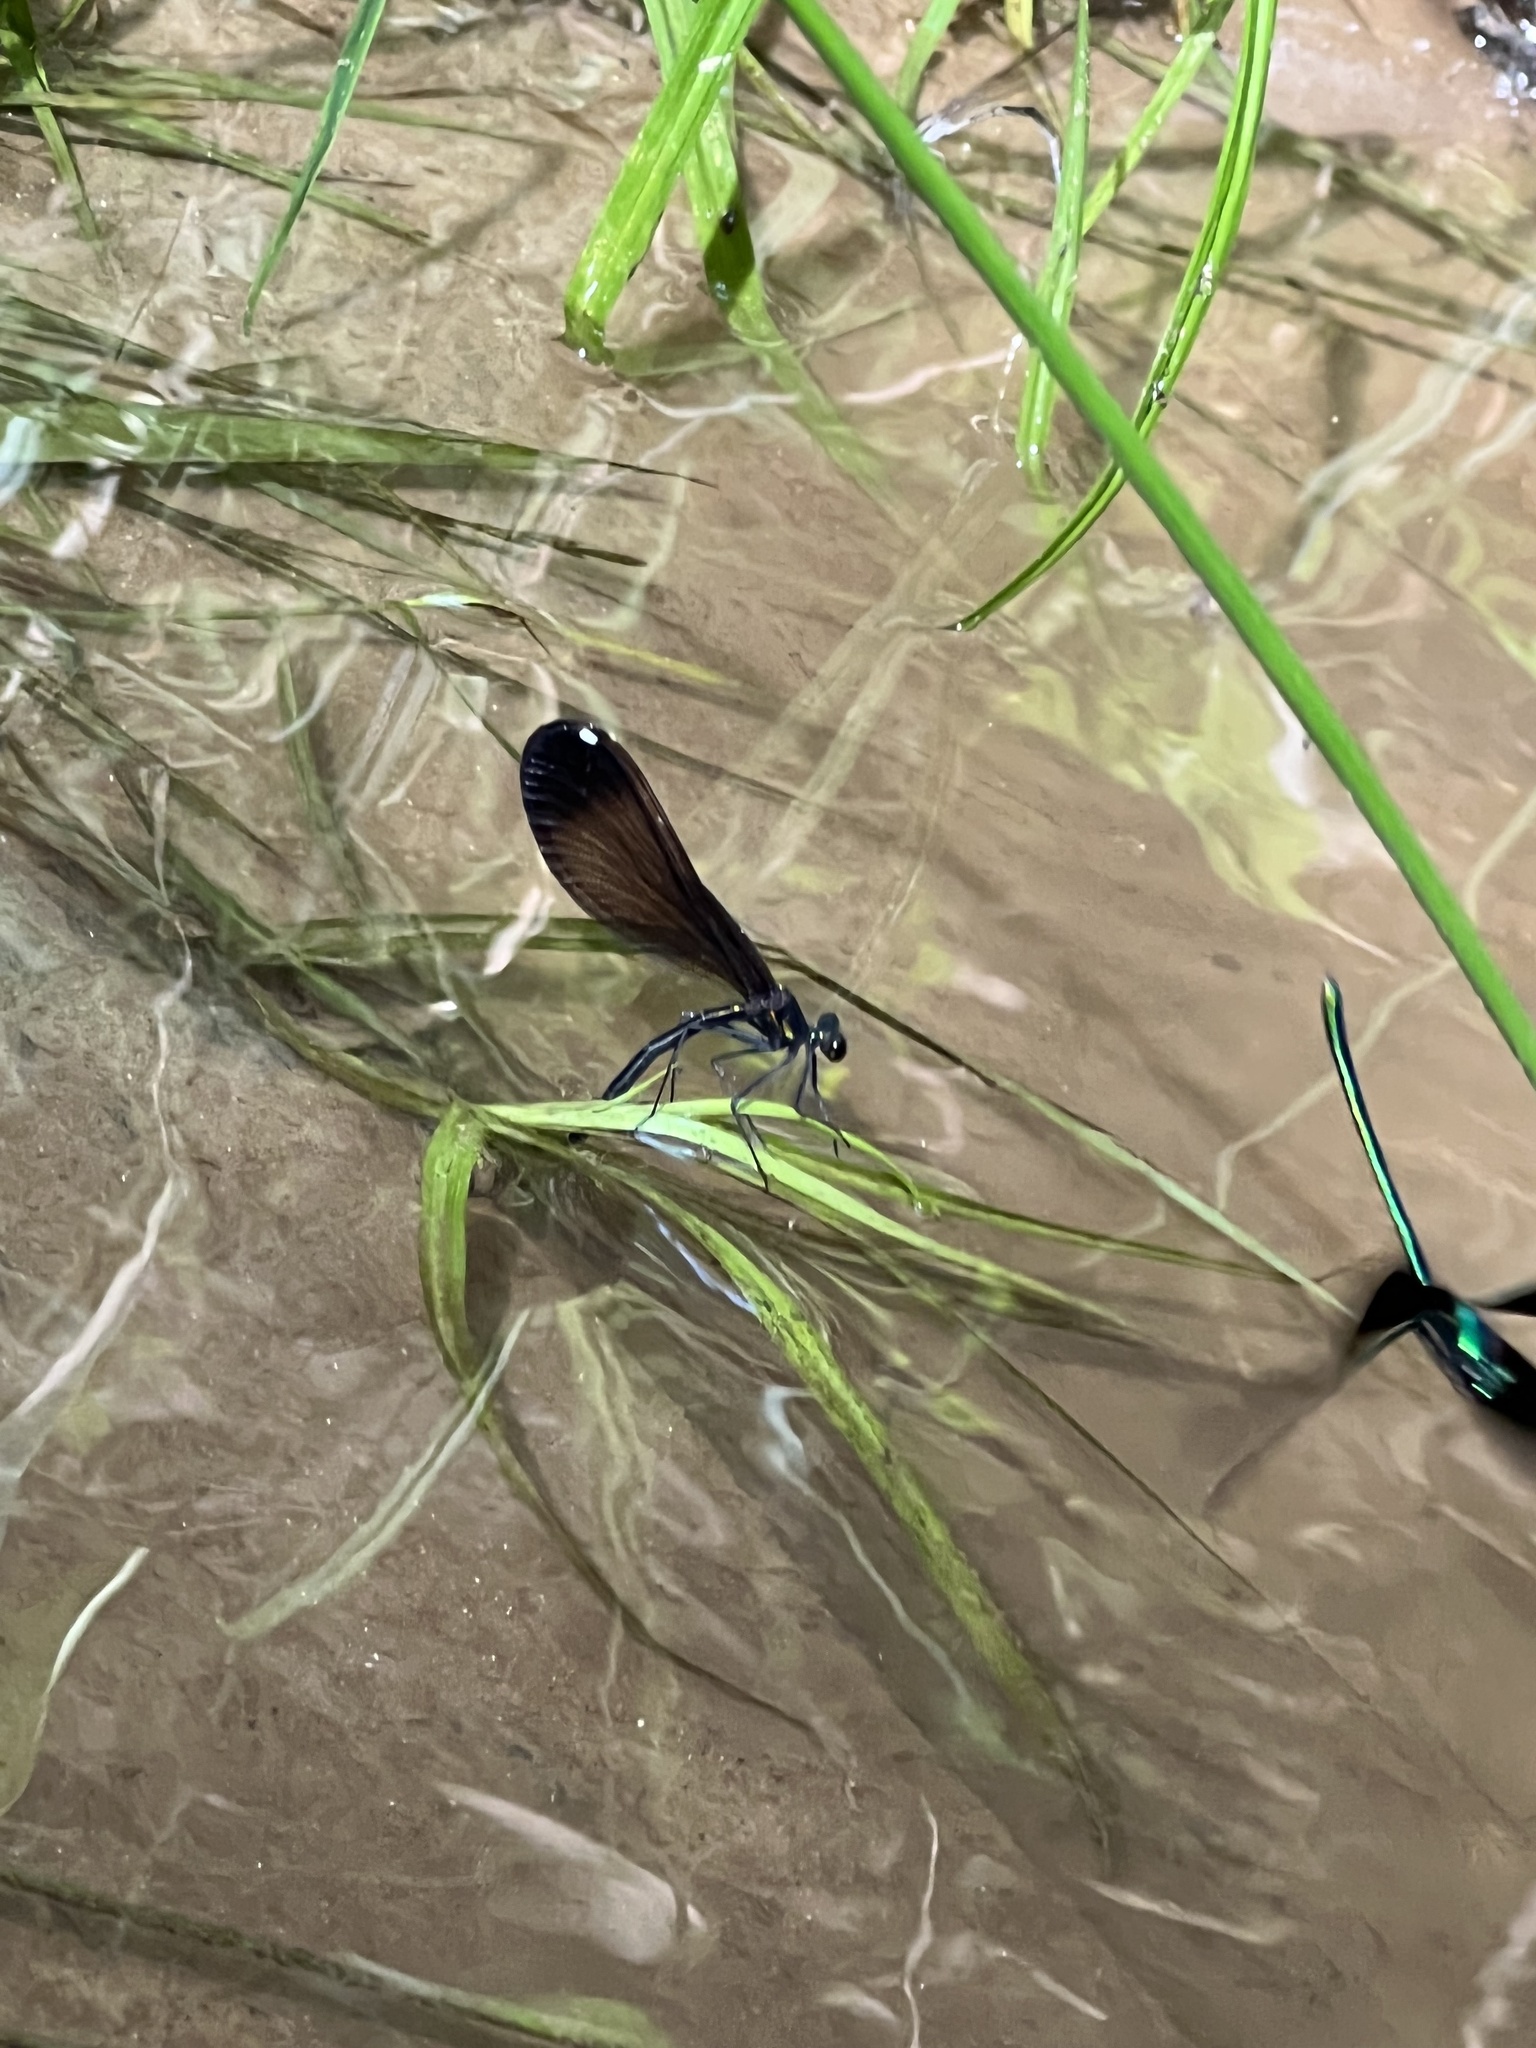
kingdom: Animalia
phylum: Arthropoda
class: Insecta
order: Odonata
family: Calopterygidae
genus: Calopteryx
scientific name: Calopteryx maculata
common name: Ebony jewelwing
